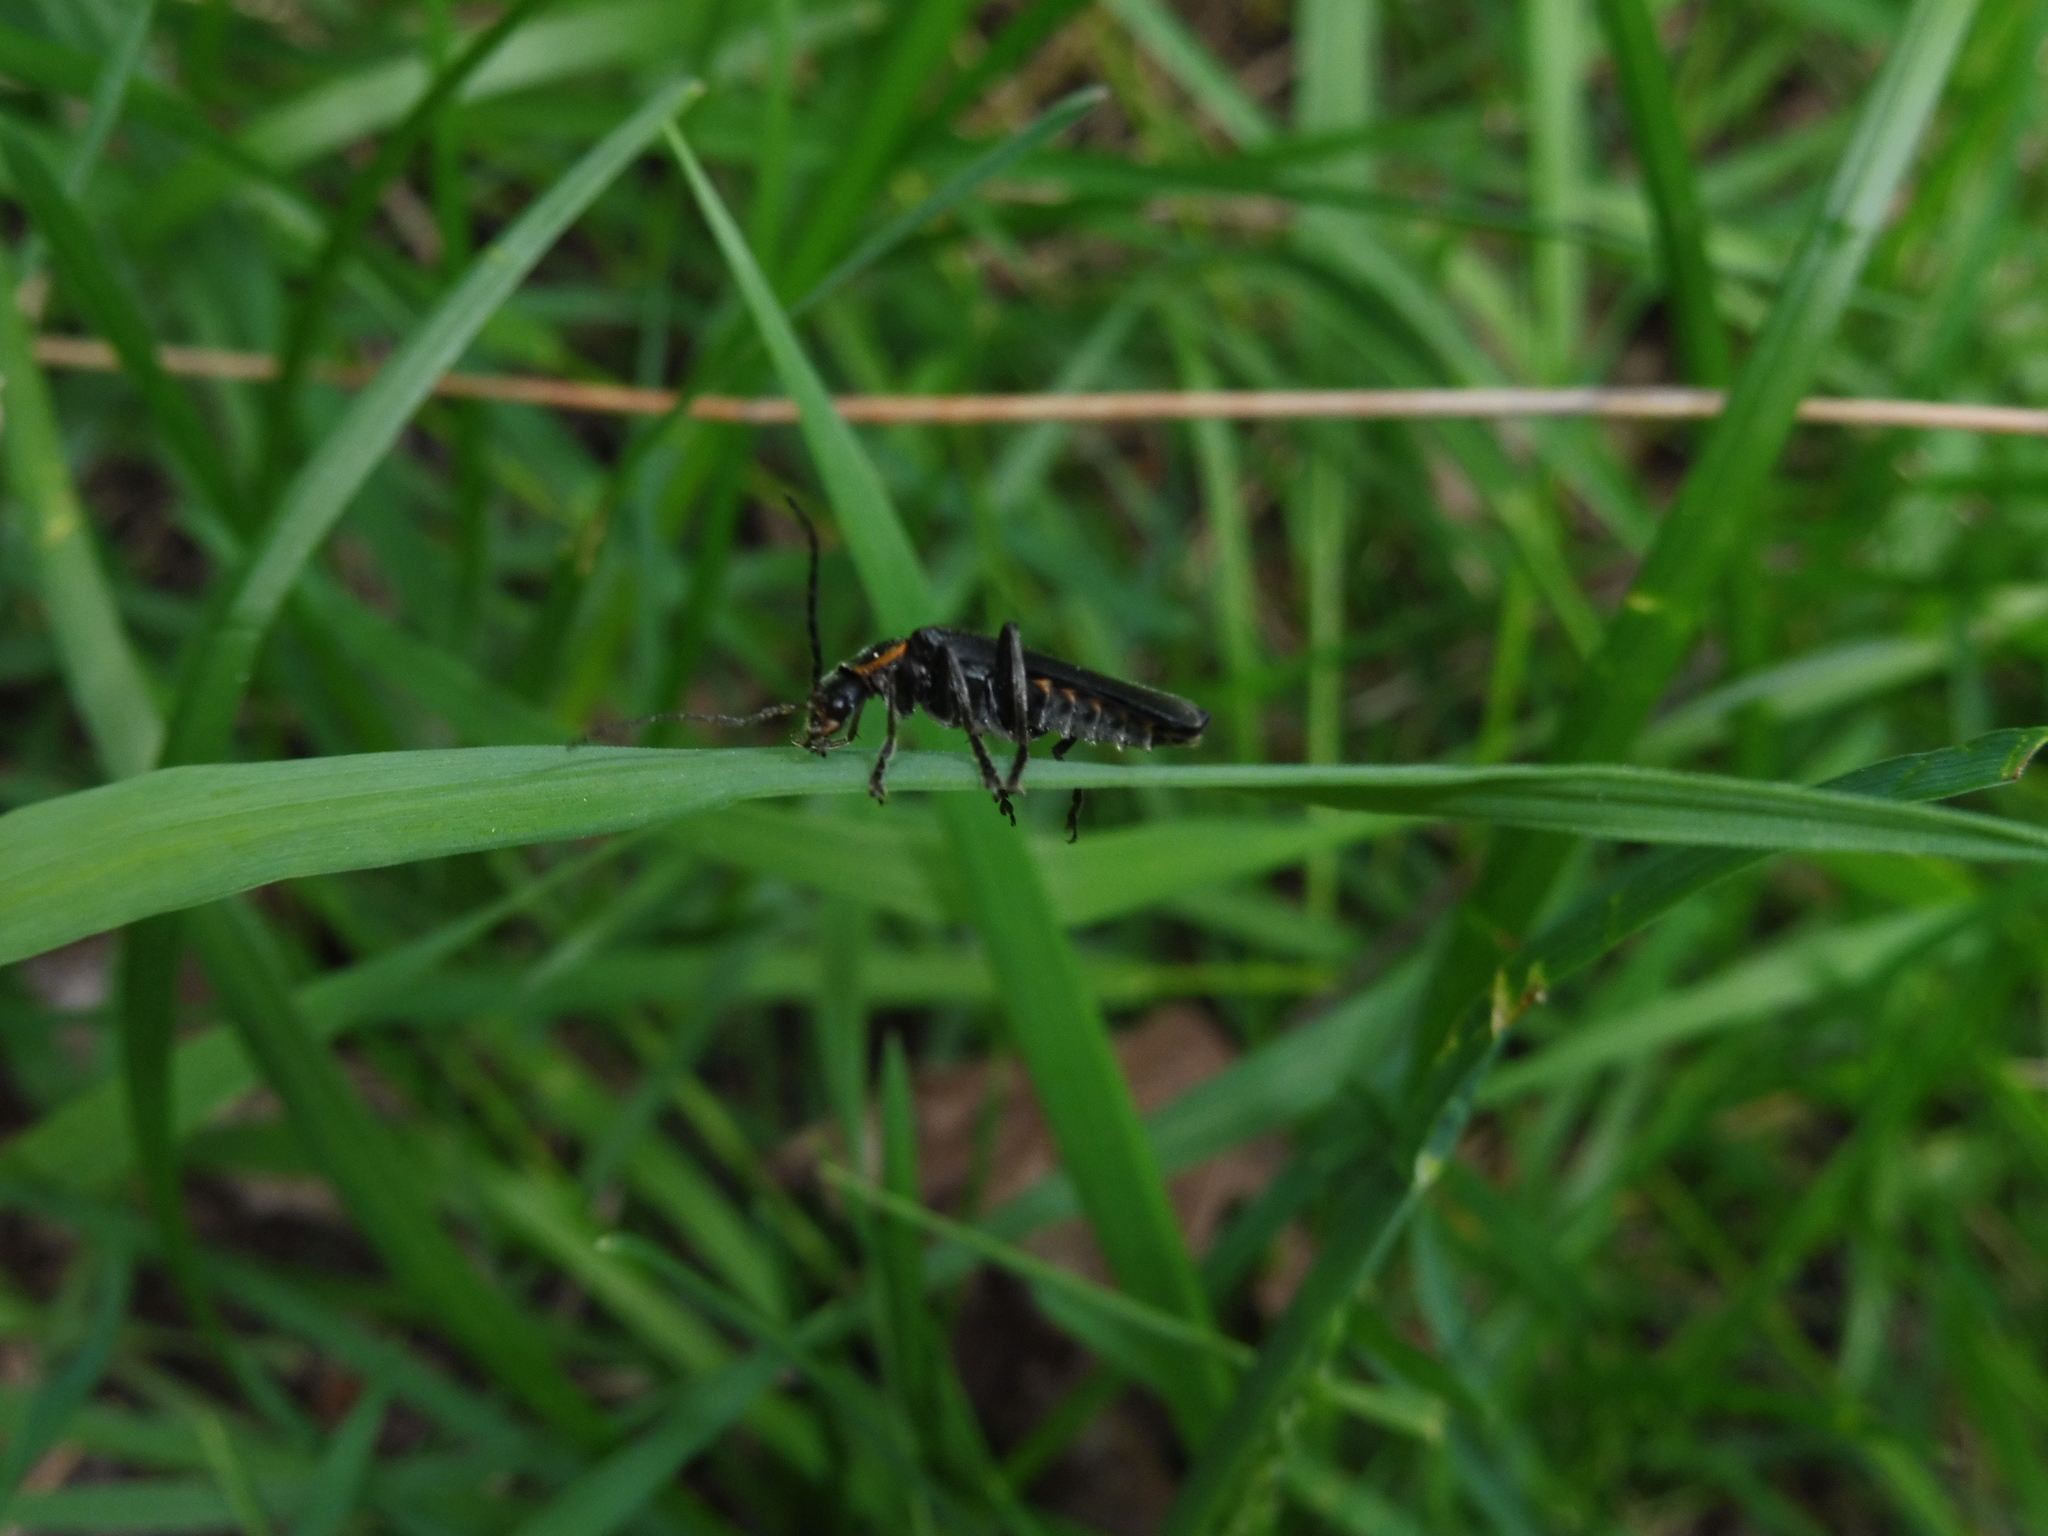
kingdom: Animalia
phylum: Arthropoda
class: Insecta
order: Coleoptera
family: Cantharidae
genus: Cantharis
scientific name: Cantharis obscura
